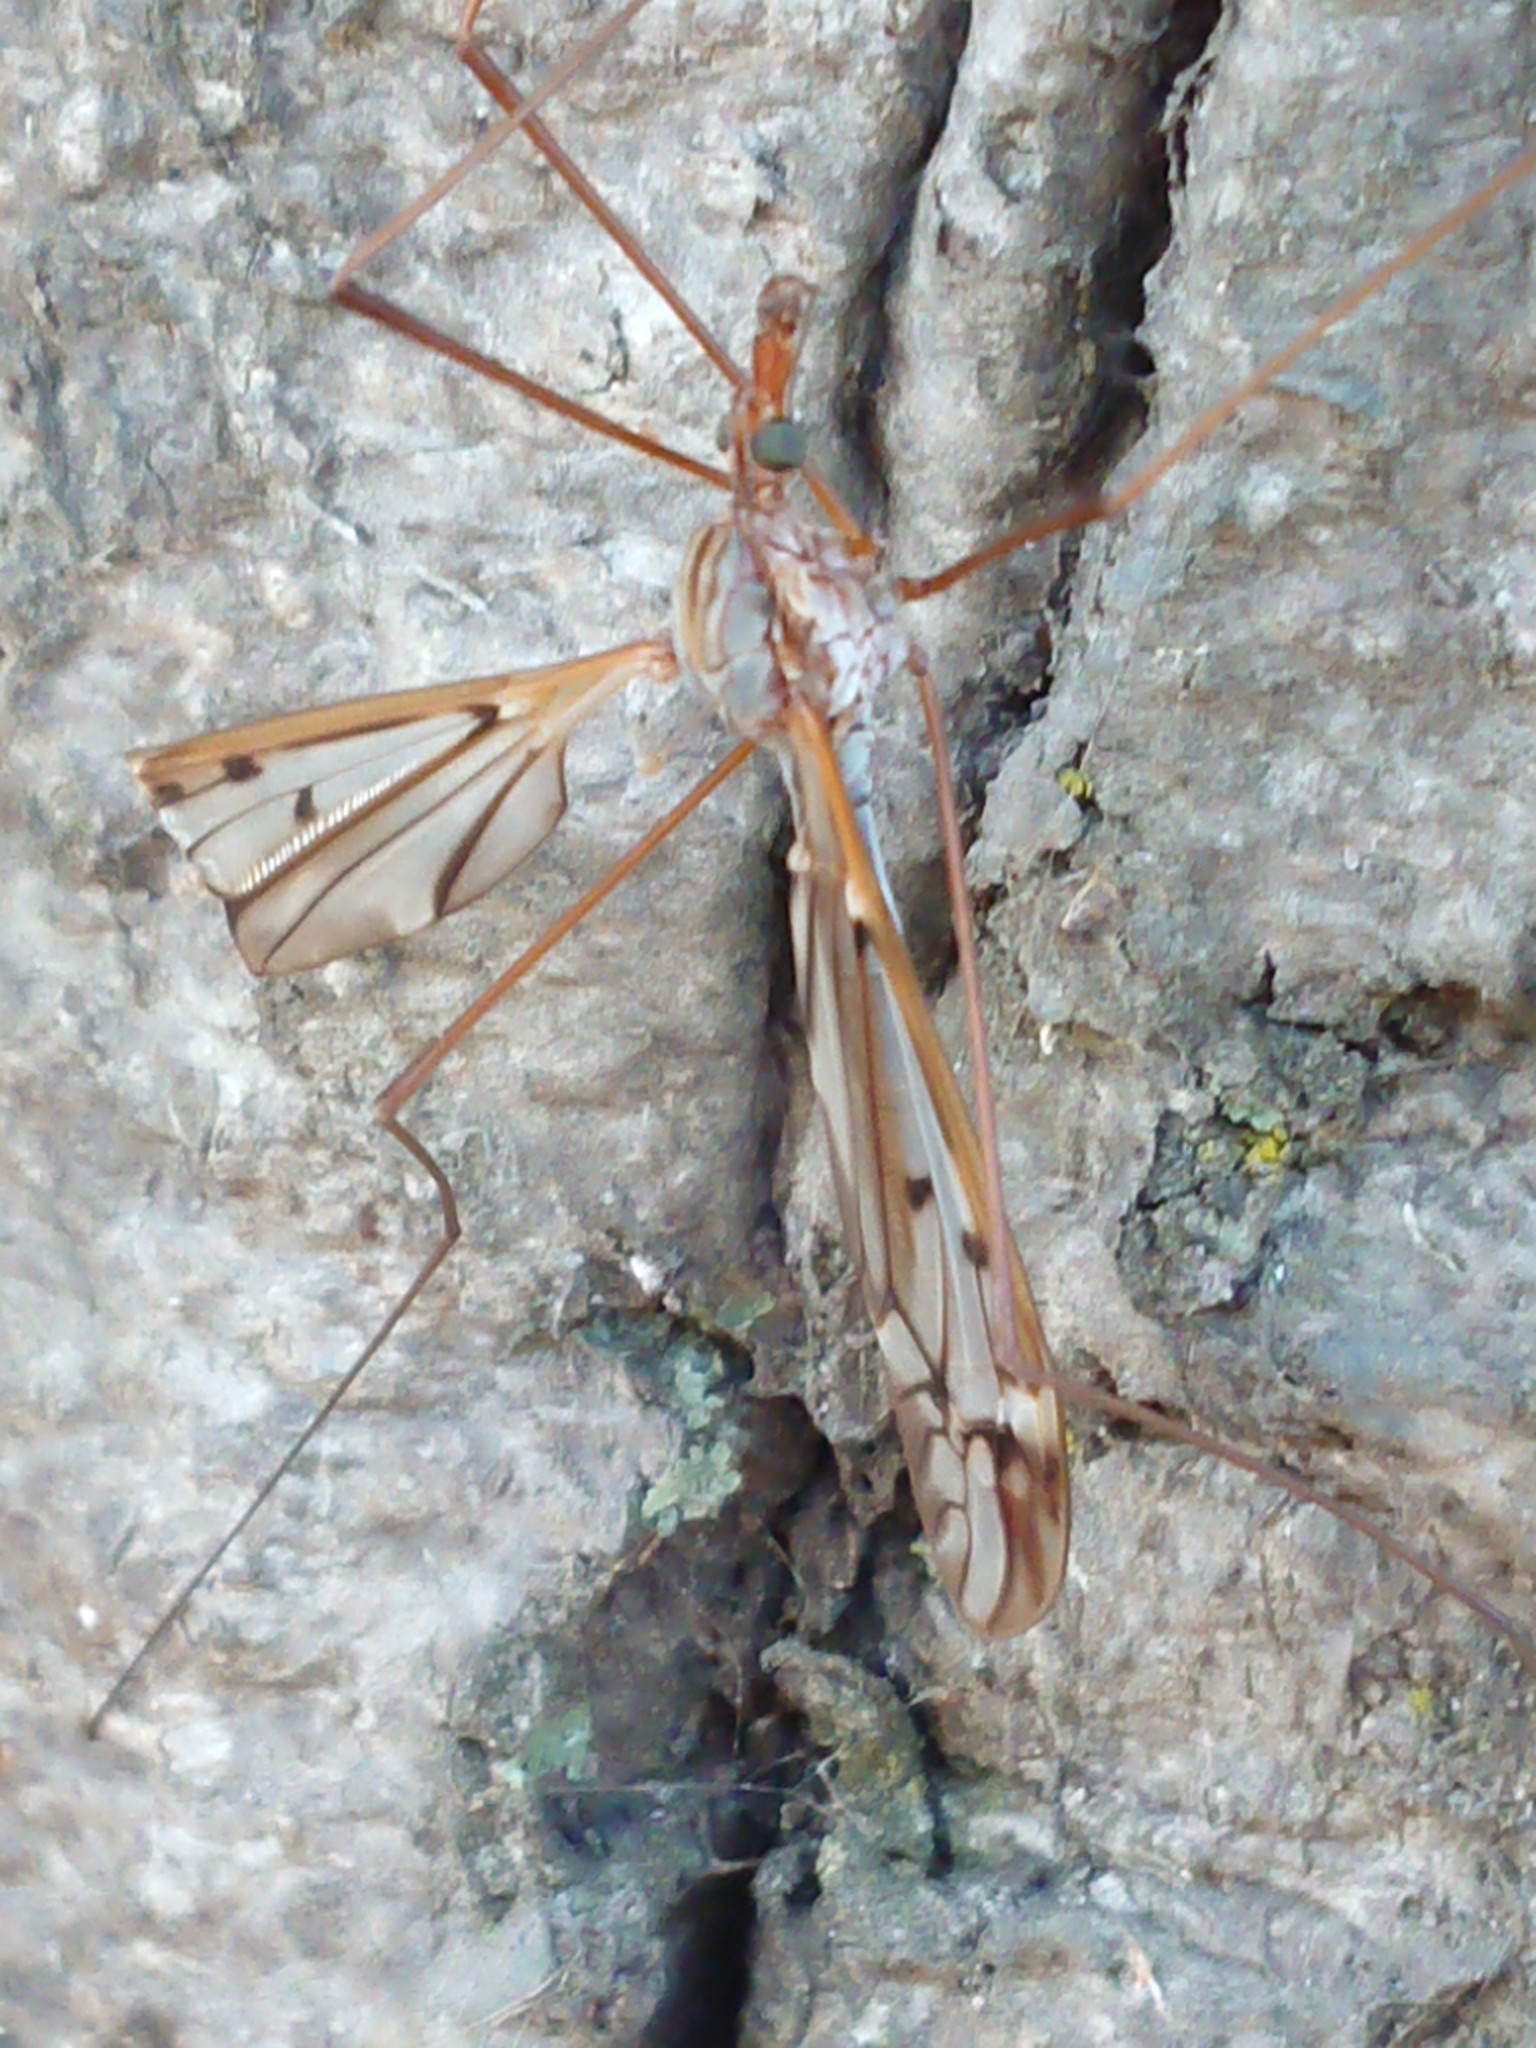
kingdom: Animalia
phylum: Arthropoda
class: Insecta
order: Diptera
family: Tipulidae
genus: Zelandotipula
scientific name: Zelandotipula novarae
